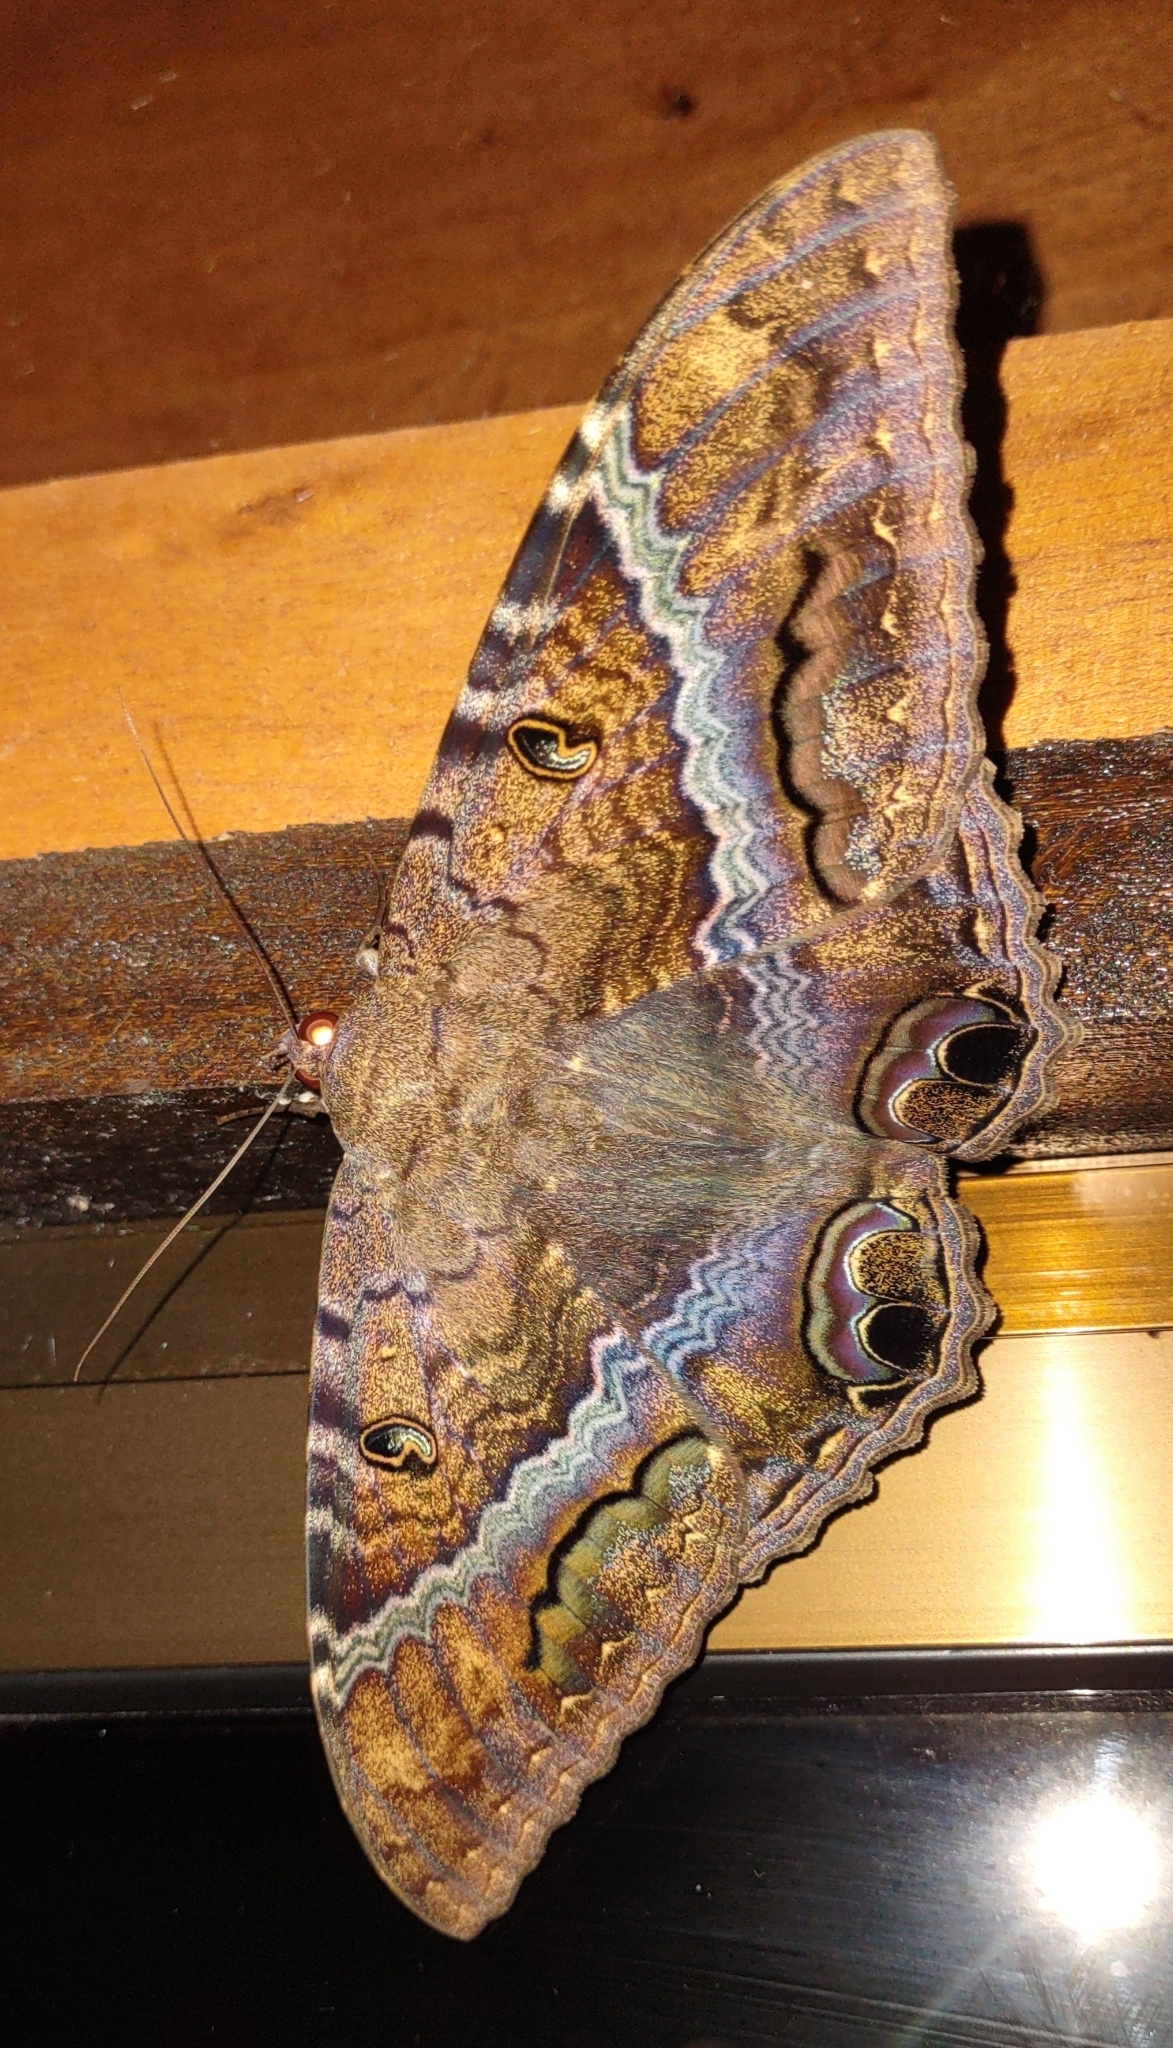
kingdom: Animalia
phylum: Arthropoda
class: Insecta
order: Lepidoptera
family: Erebidae
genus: Ascalapha
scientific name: Ascalapha odorata
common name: Black witch
